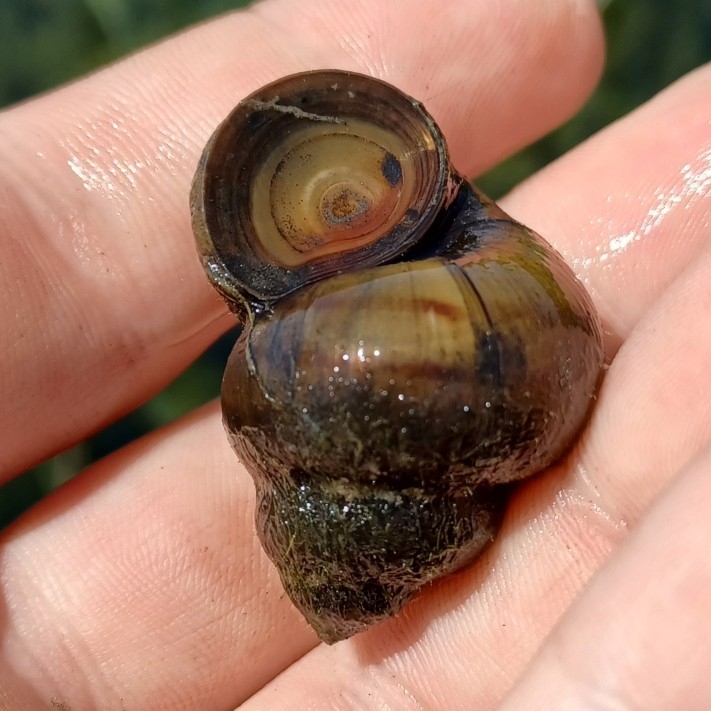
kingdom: Animalia
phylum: Mollusca
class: Gastropoda
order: Architaenioglossa
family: Viviparidae
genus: Viviparus
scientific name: Viviparus contectus
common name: Lister's river snail
